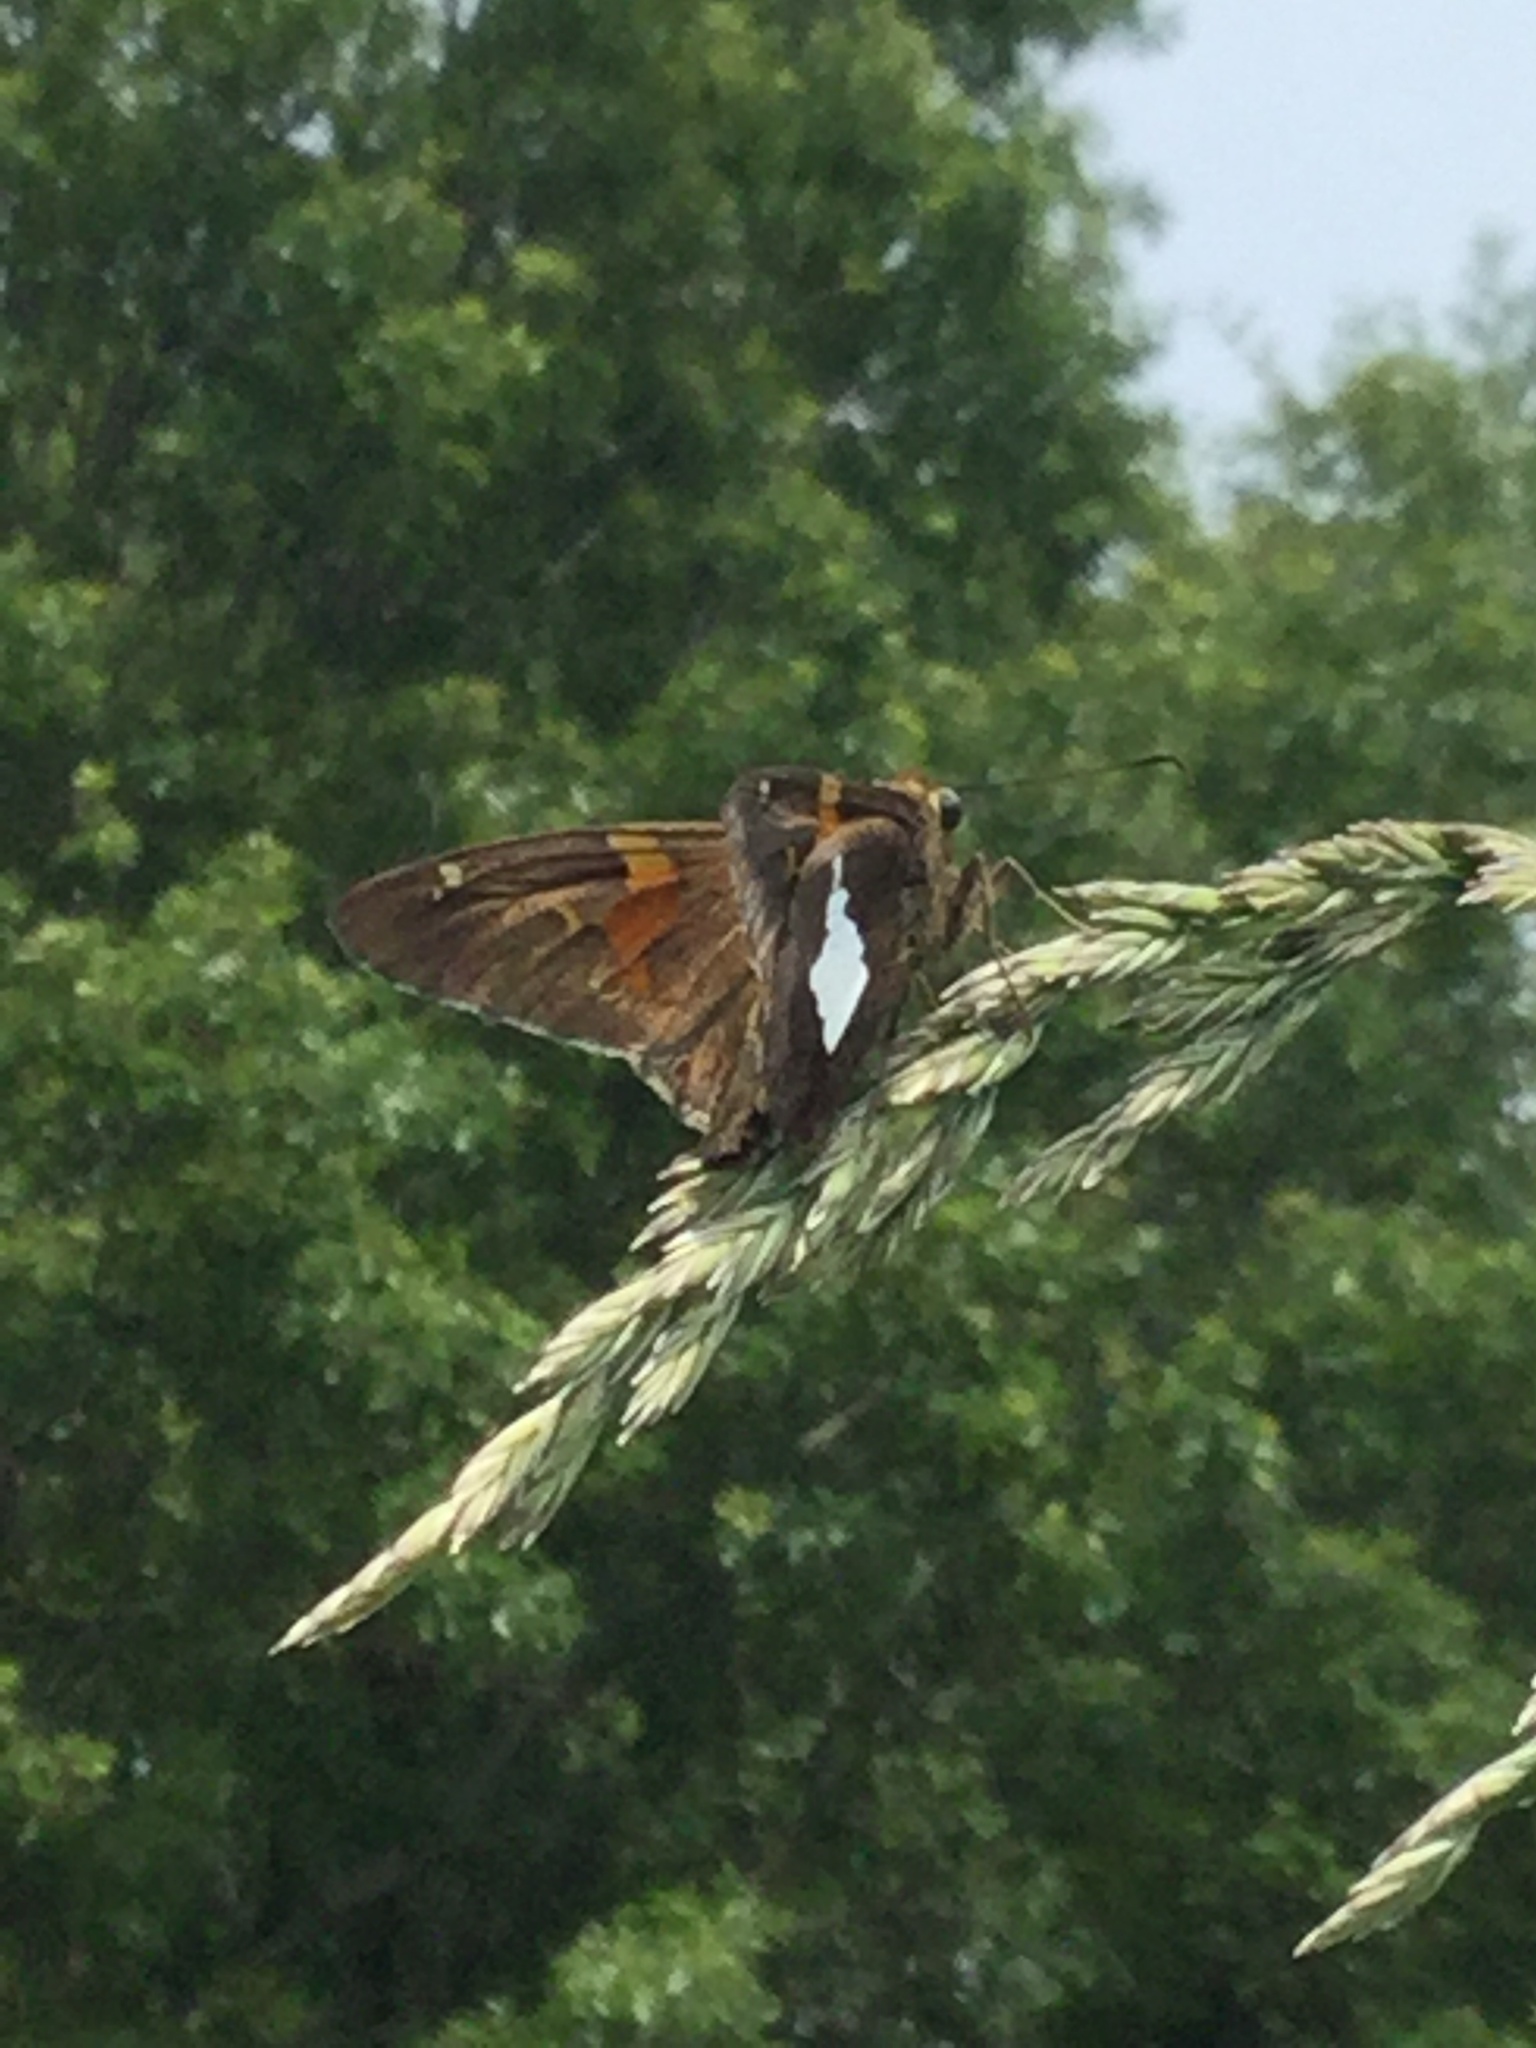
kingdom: Animalia
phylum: Arthropoda
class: Insecta
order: Lepidoptera
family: Hesperiidae
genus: Epargyreus
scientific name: Epargyreus clarus
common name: Silver-spotted skipper
